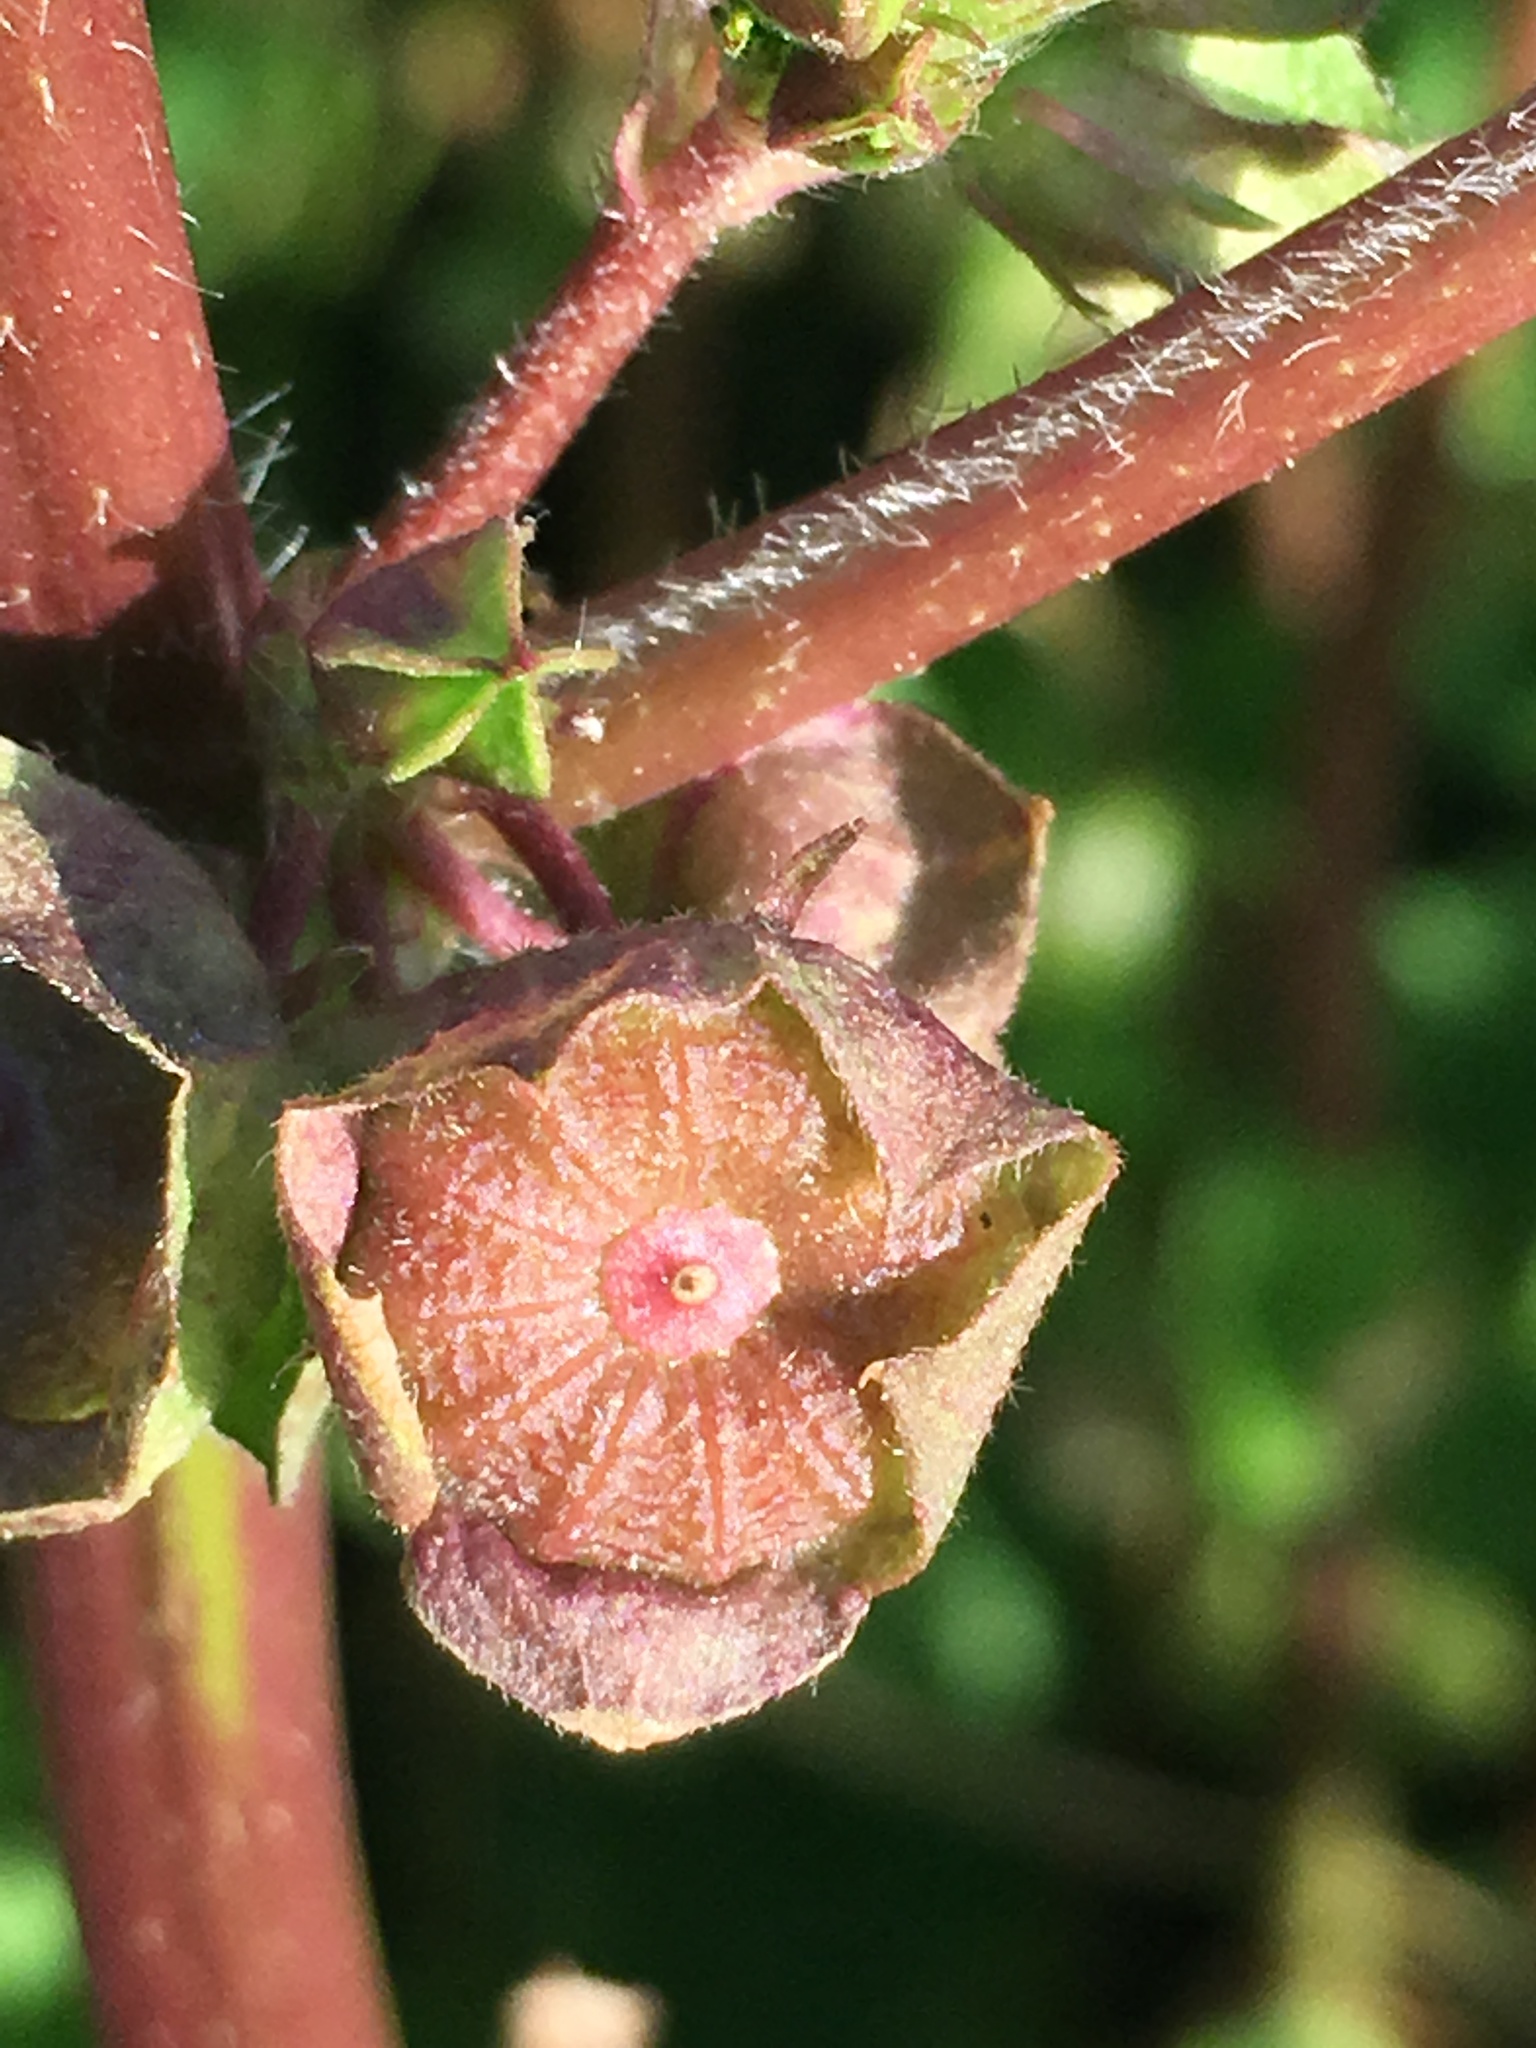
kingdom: Plantae
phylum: Tracheophyta
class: Magnoliopsida
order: Malvales
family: Malvaceae
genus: Malva
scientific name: Malva parviflora
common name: Least mallow
